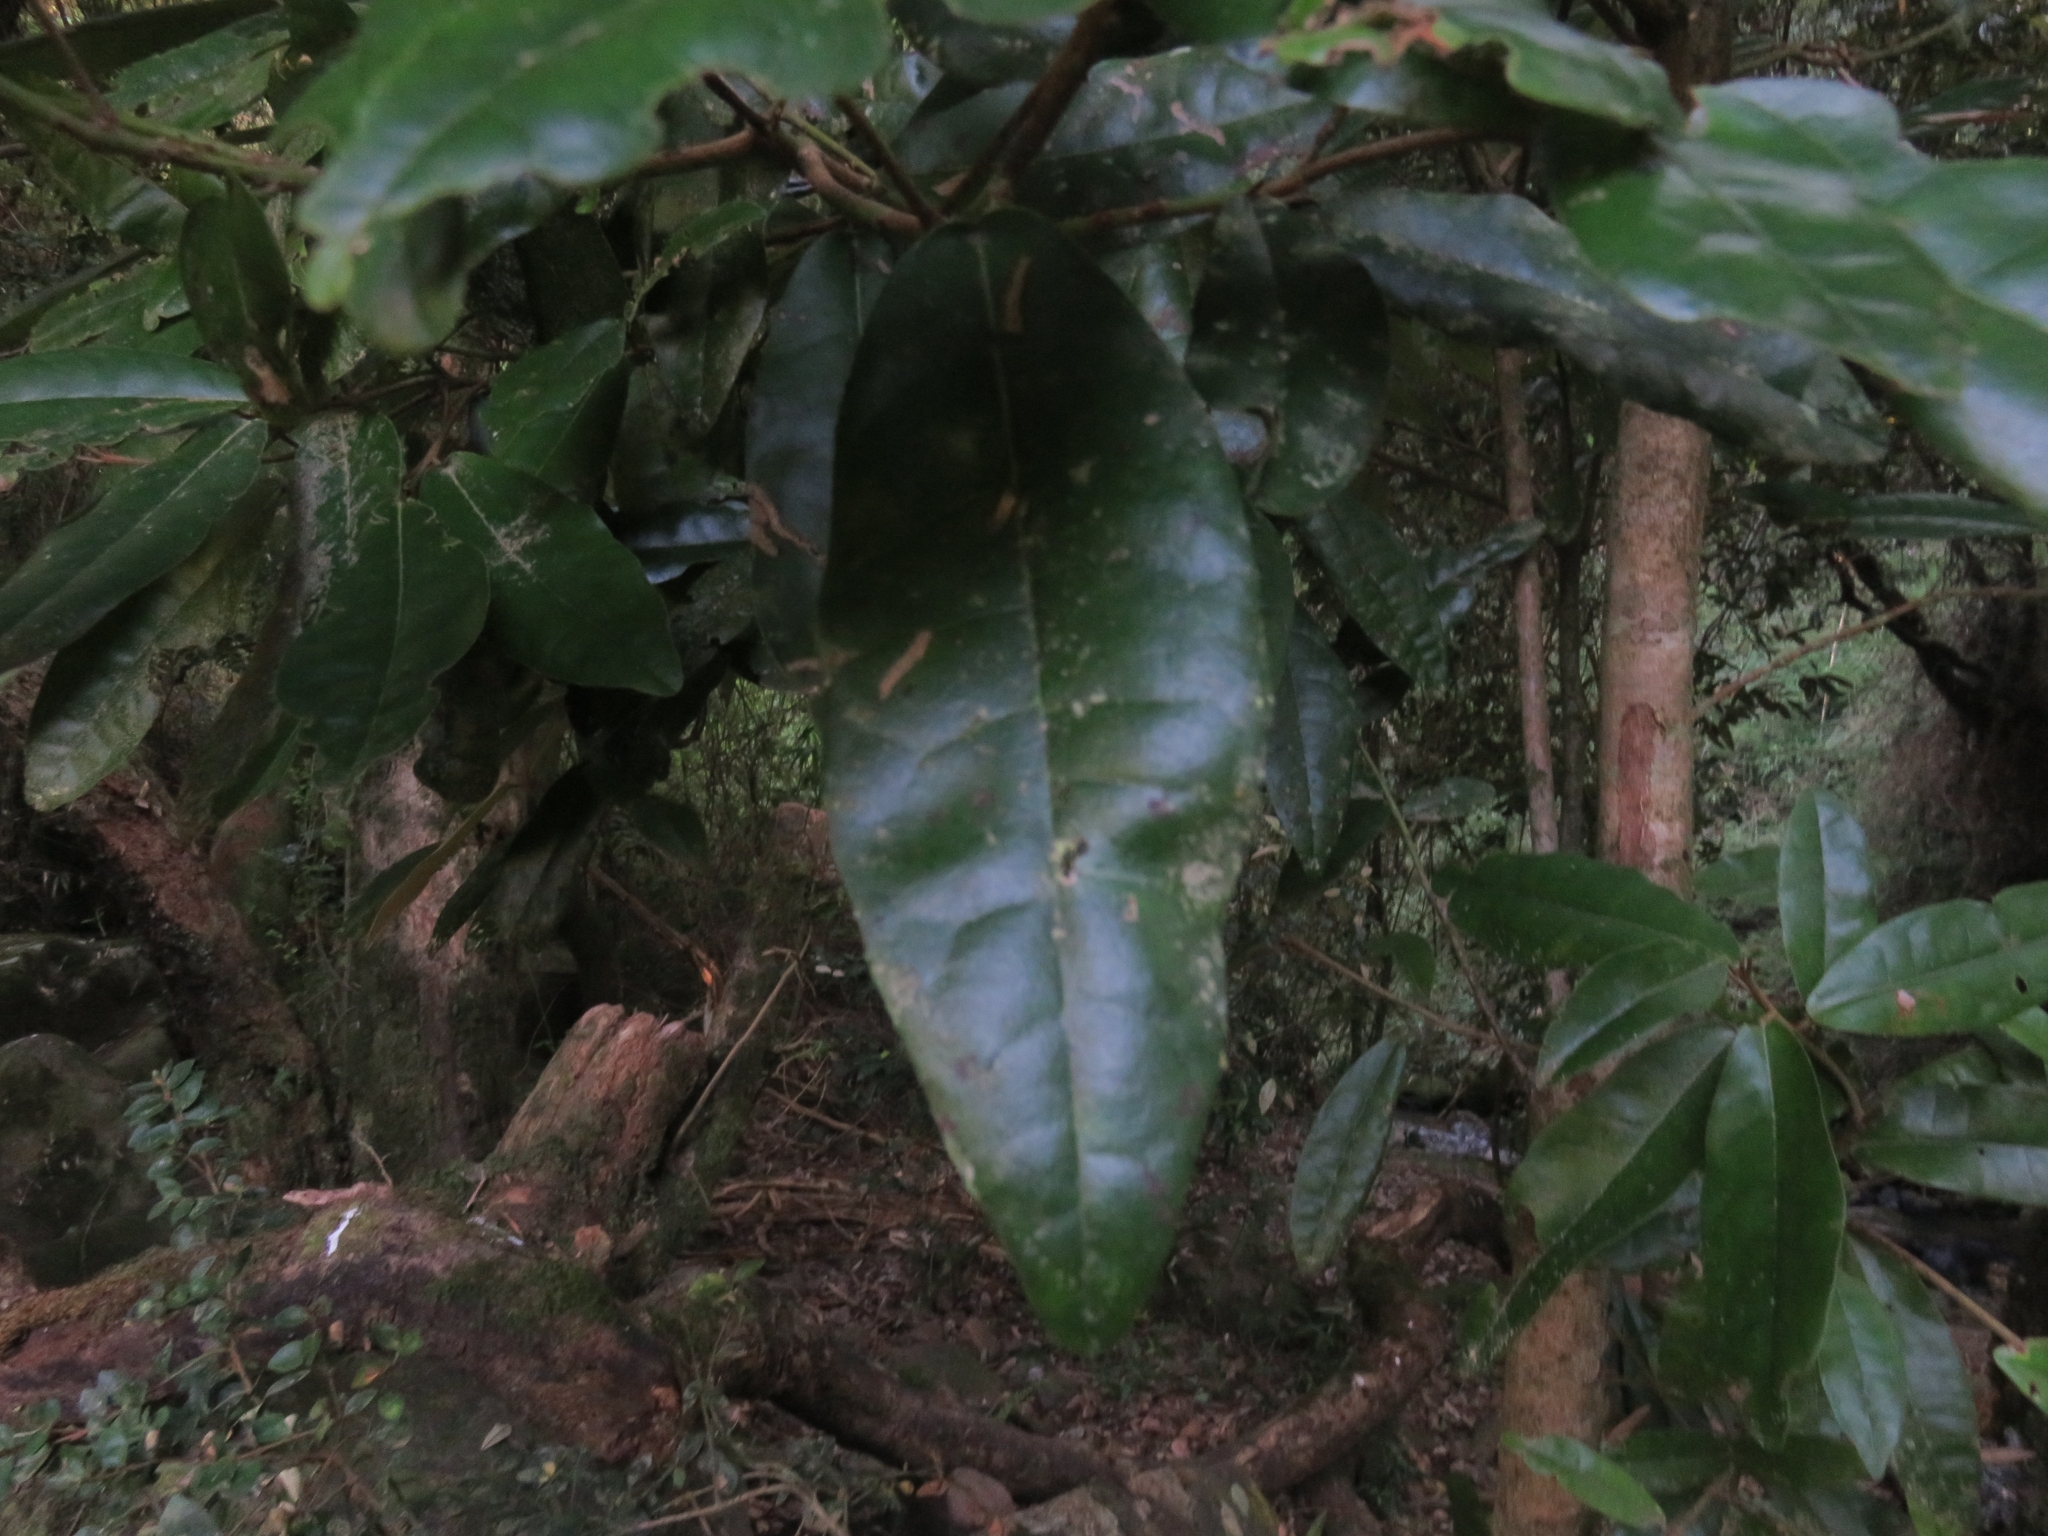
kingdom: Plantae
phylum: Tracheophyta
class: Magnoliopsida
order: Berberidopsidales
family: Aextoxicaceae
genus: Aextoxicon
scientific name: Aextoxicon punctatum
